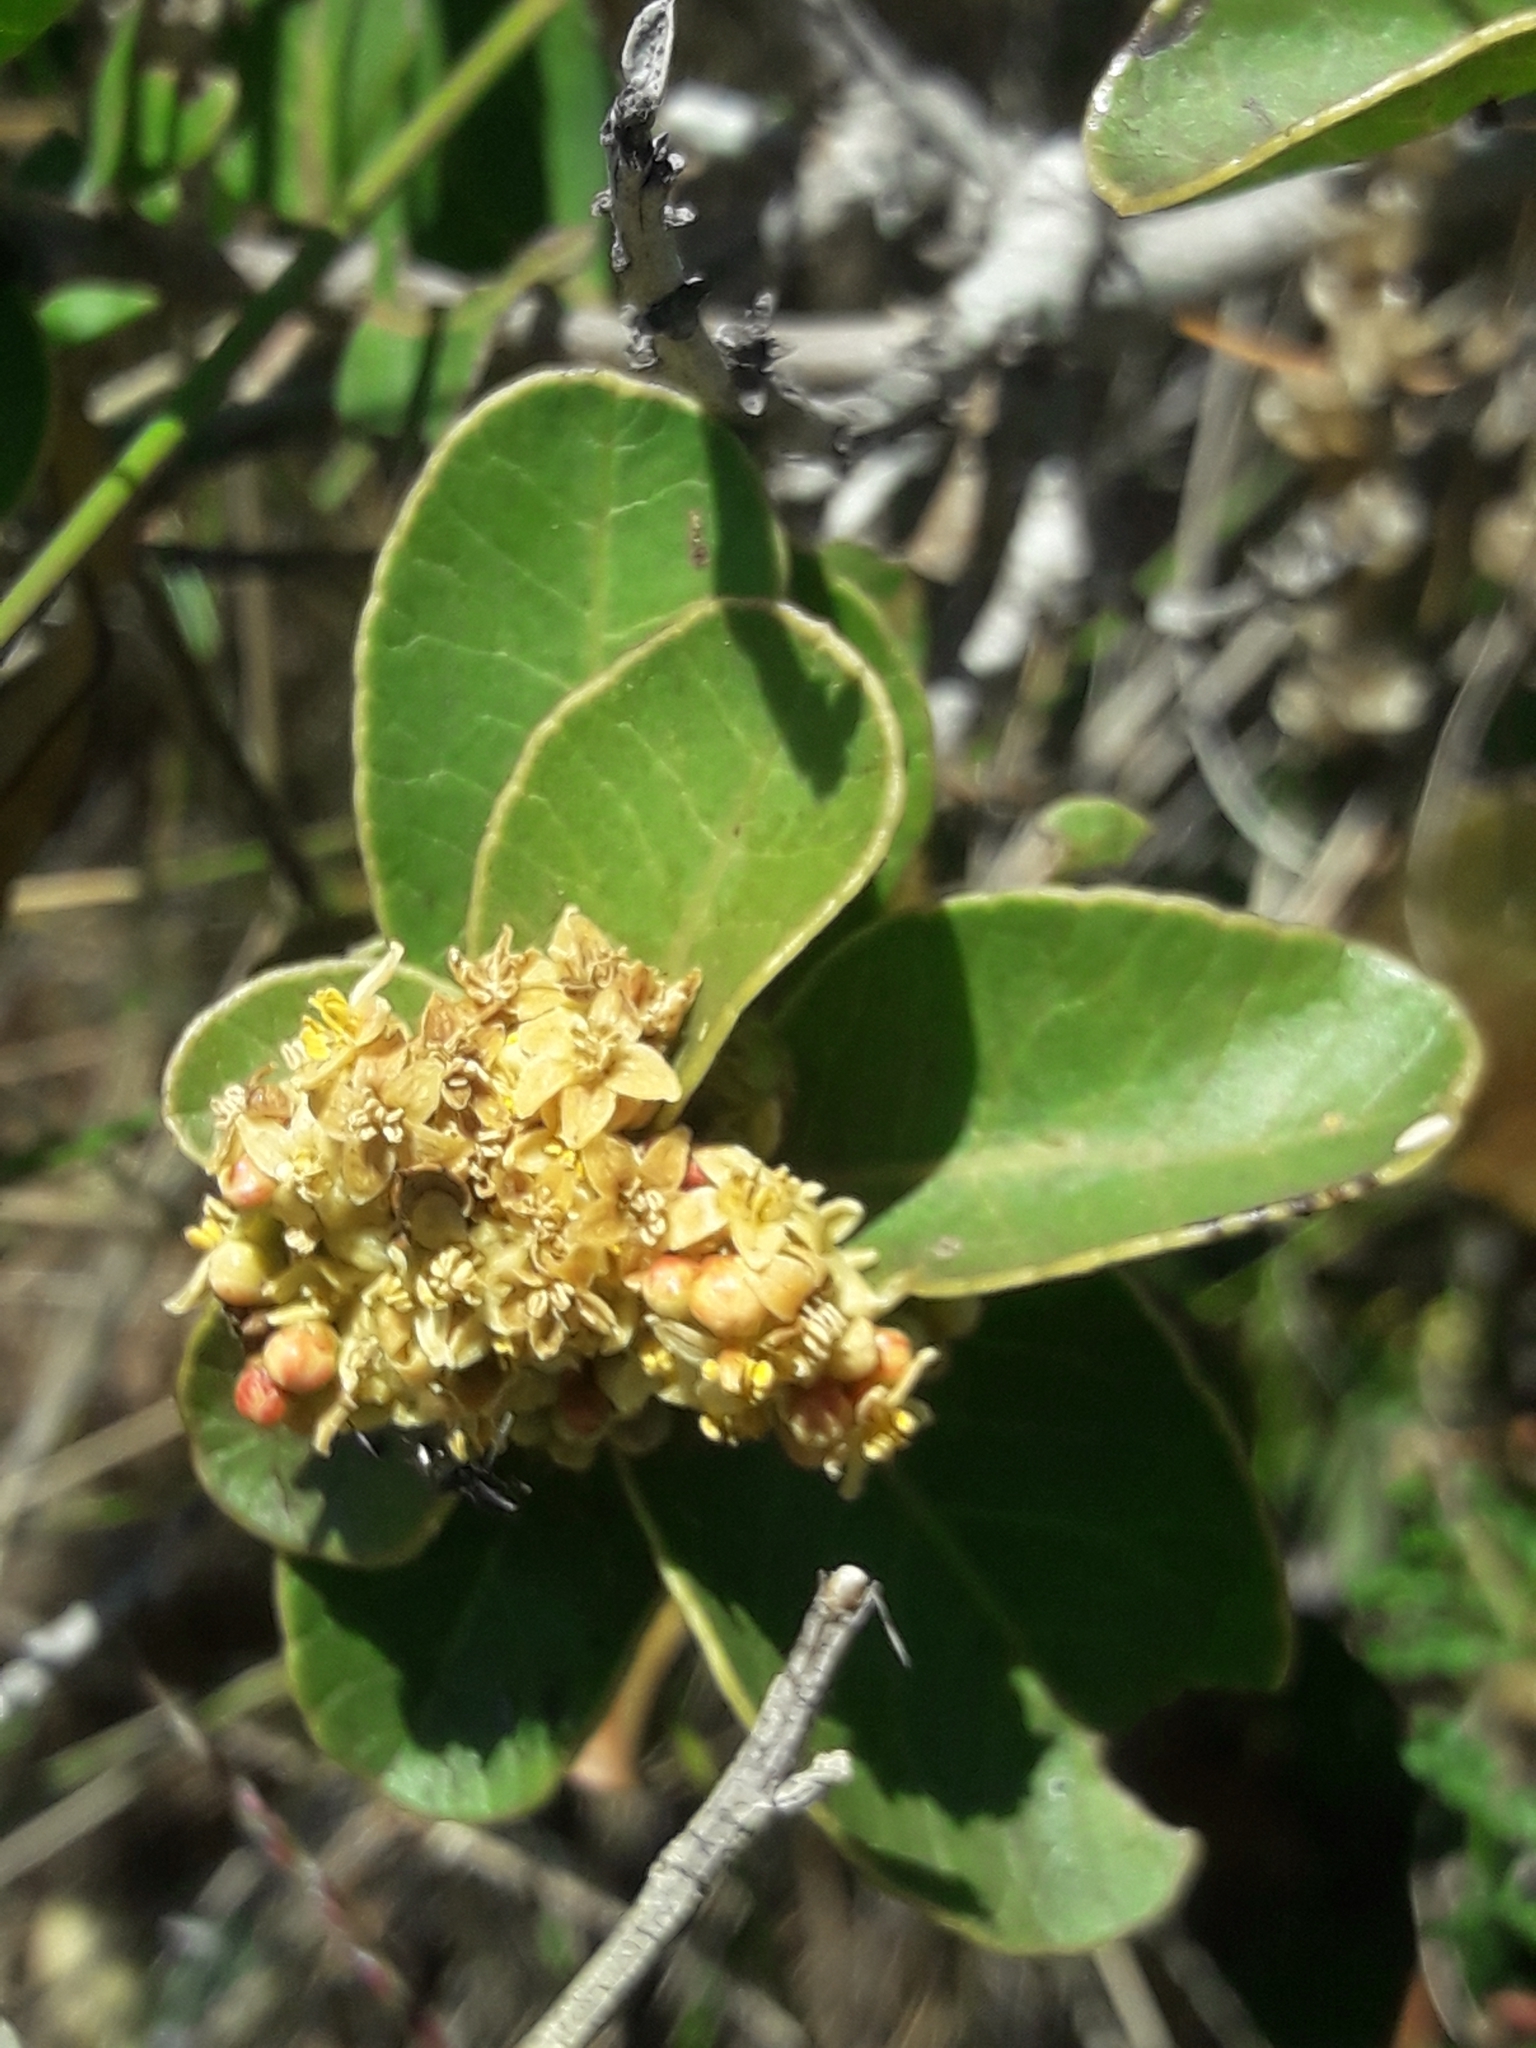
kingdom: Plantae
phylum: Tracheophyta
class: Magnoliopsida
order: Sapindales
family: Anacardiaceae
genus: Lithraea
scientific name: Lithraea caustica
